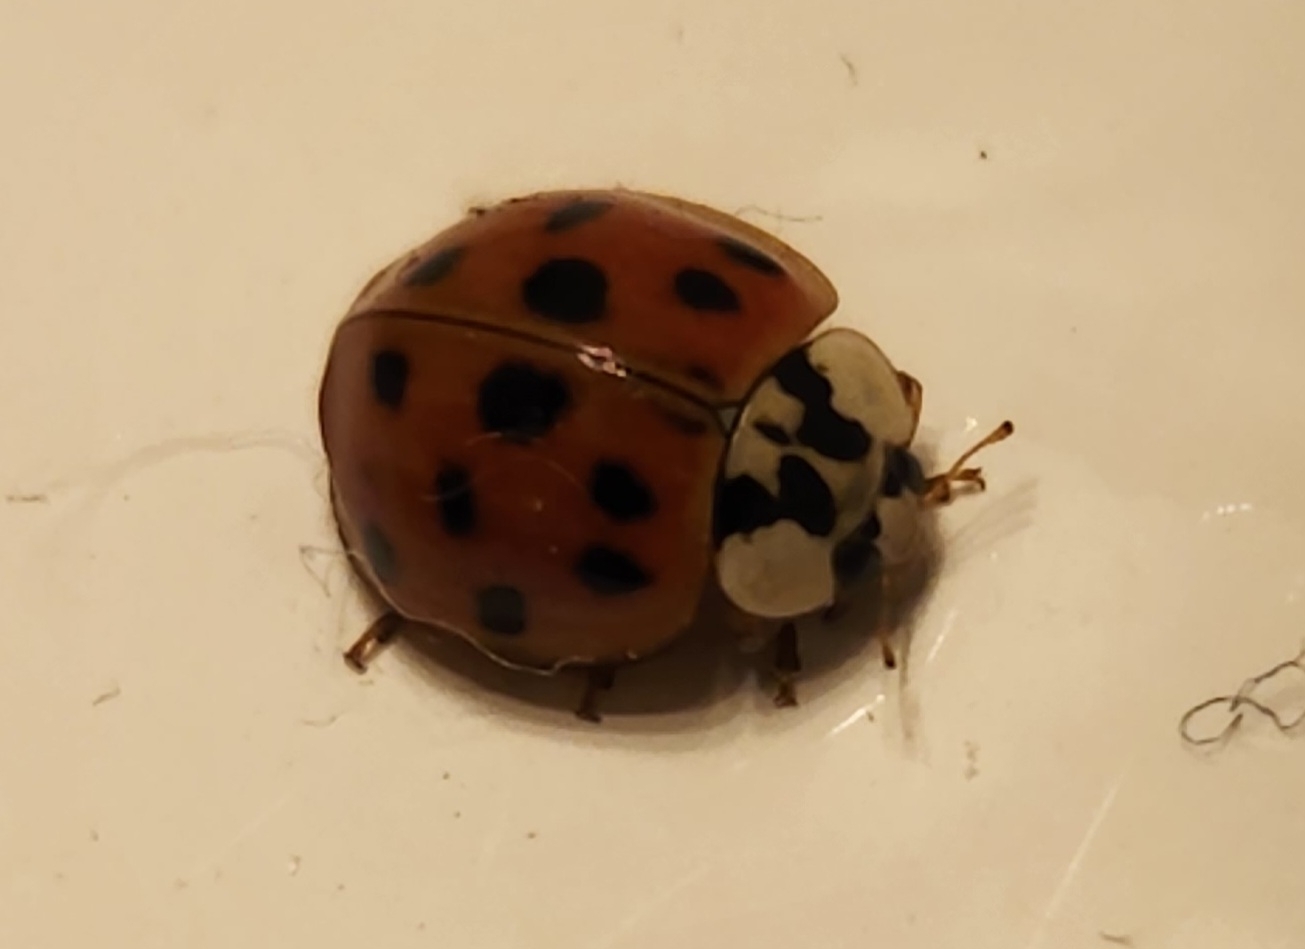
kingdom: Animalia
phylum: Arthropoda
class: Insecta
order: Coleoptera
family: Coccinellidae
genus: Harmonia
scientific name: Harmonia axyridis
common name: Harlequin ladybird
